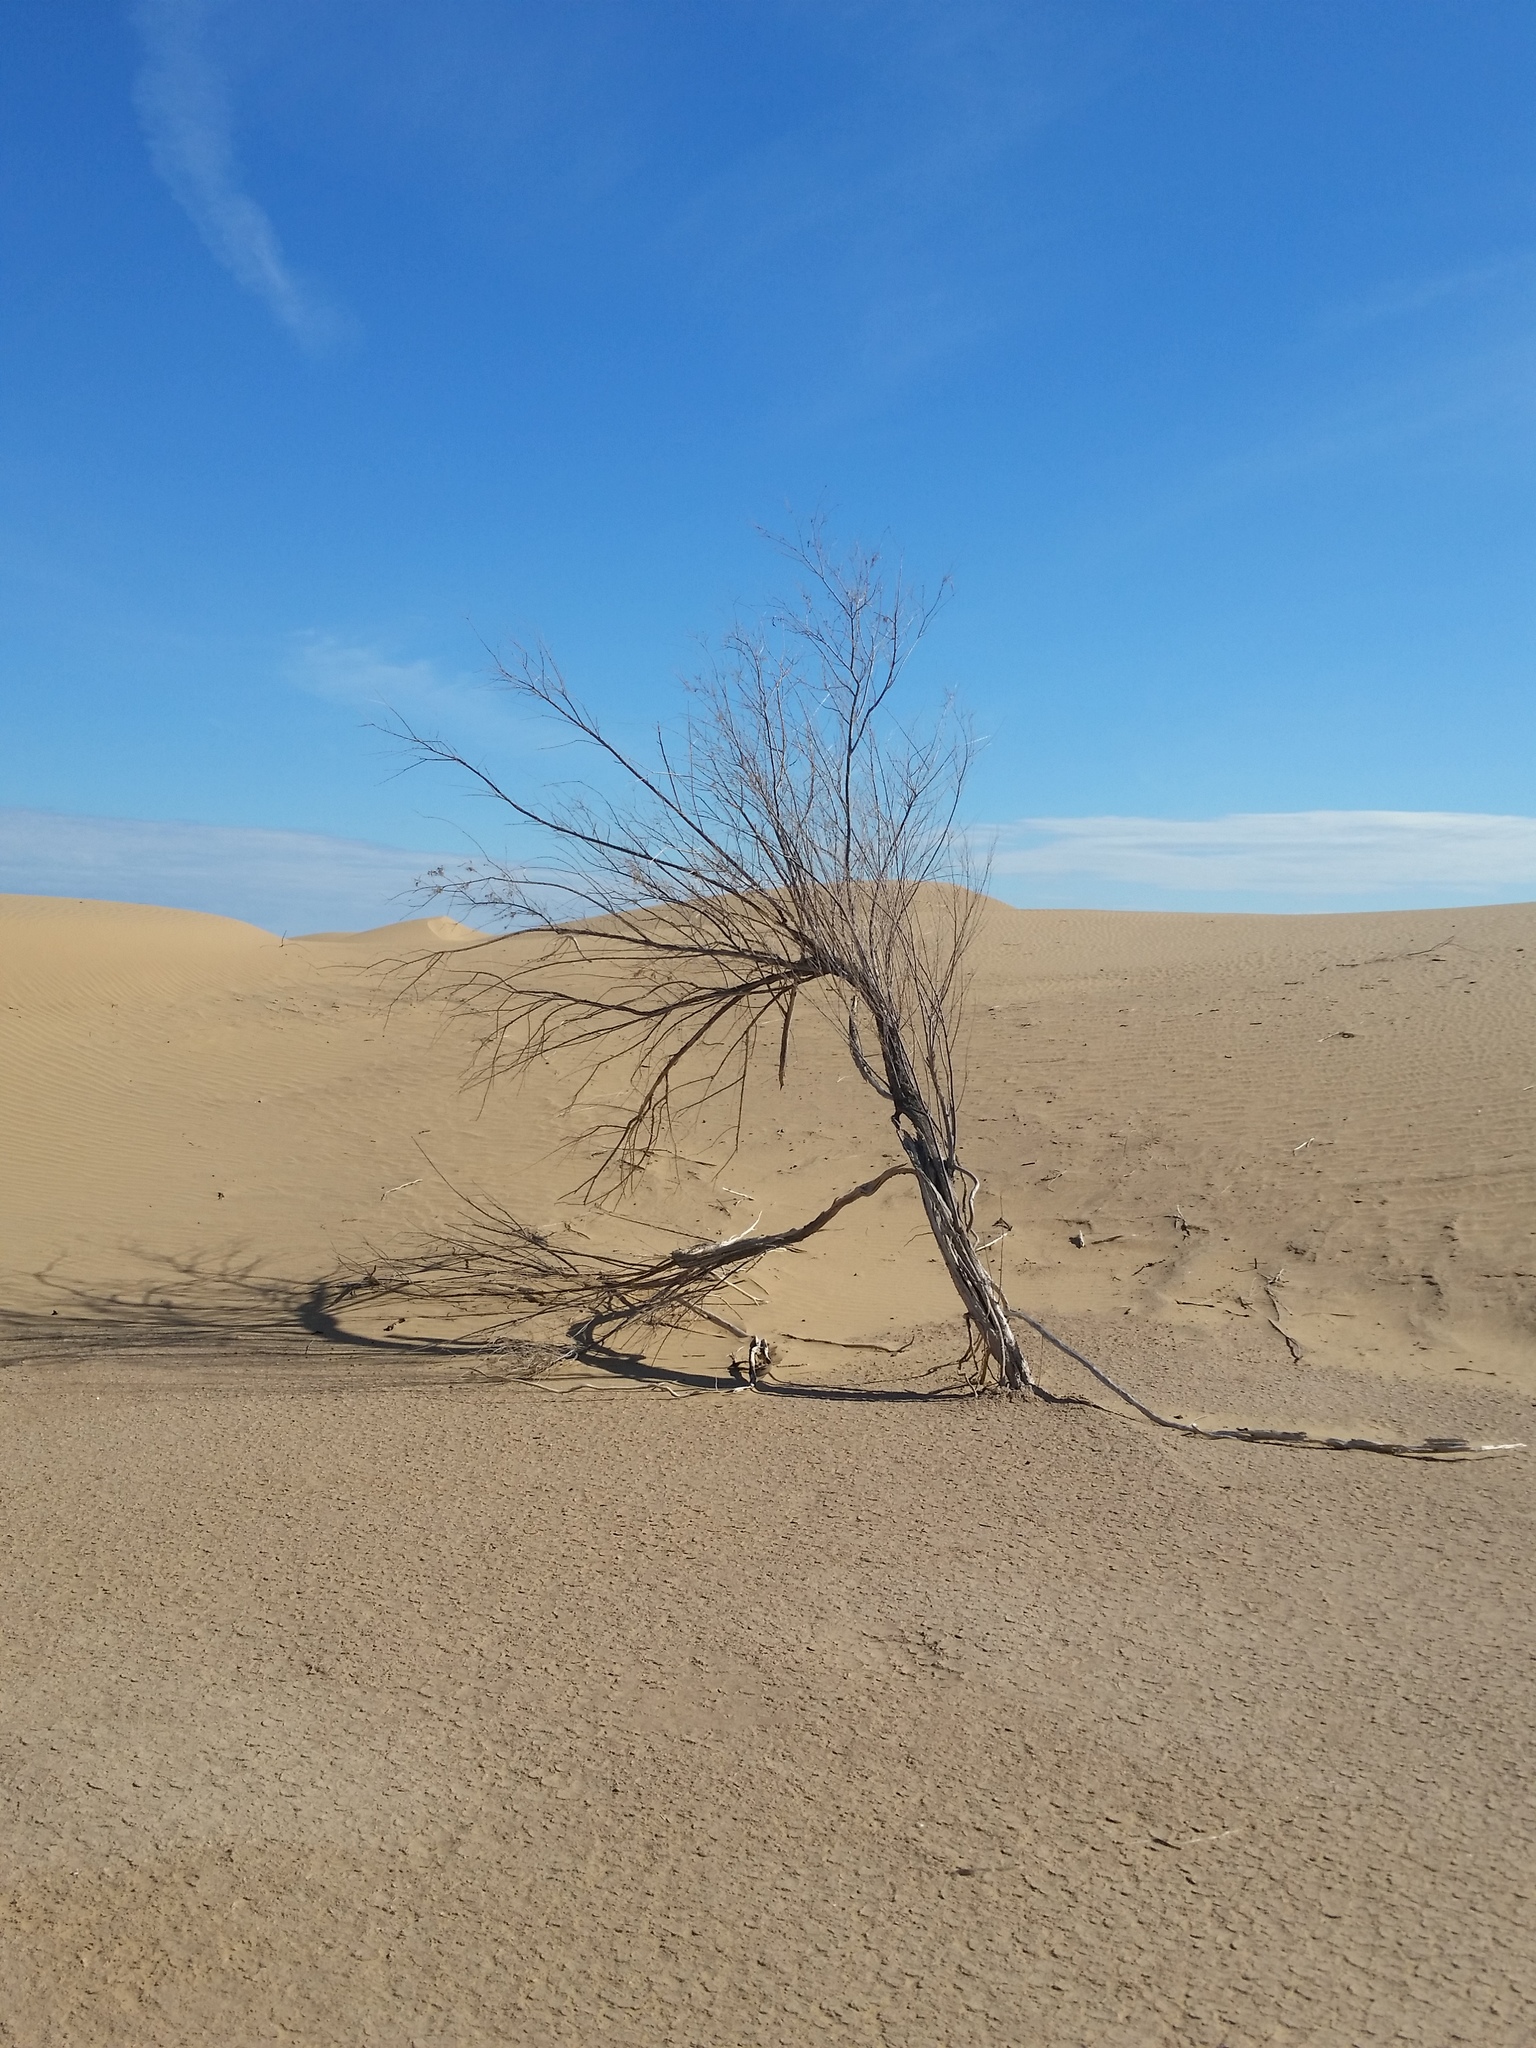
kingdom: Plantae
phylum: Tracheophyta
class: Magnoliopsida
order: Lamiales
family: Bignoniaceae
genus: Chilopsis
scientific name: Chilopsis linearis
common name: Desert-willow
